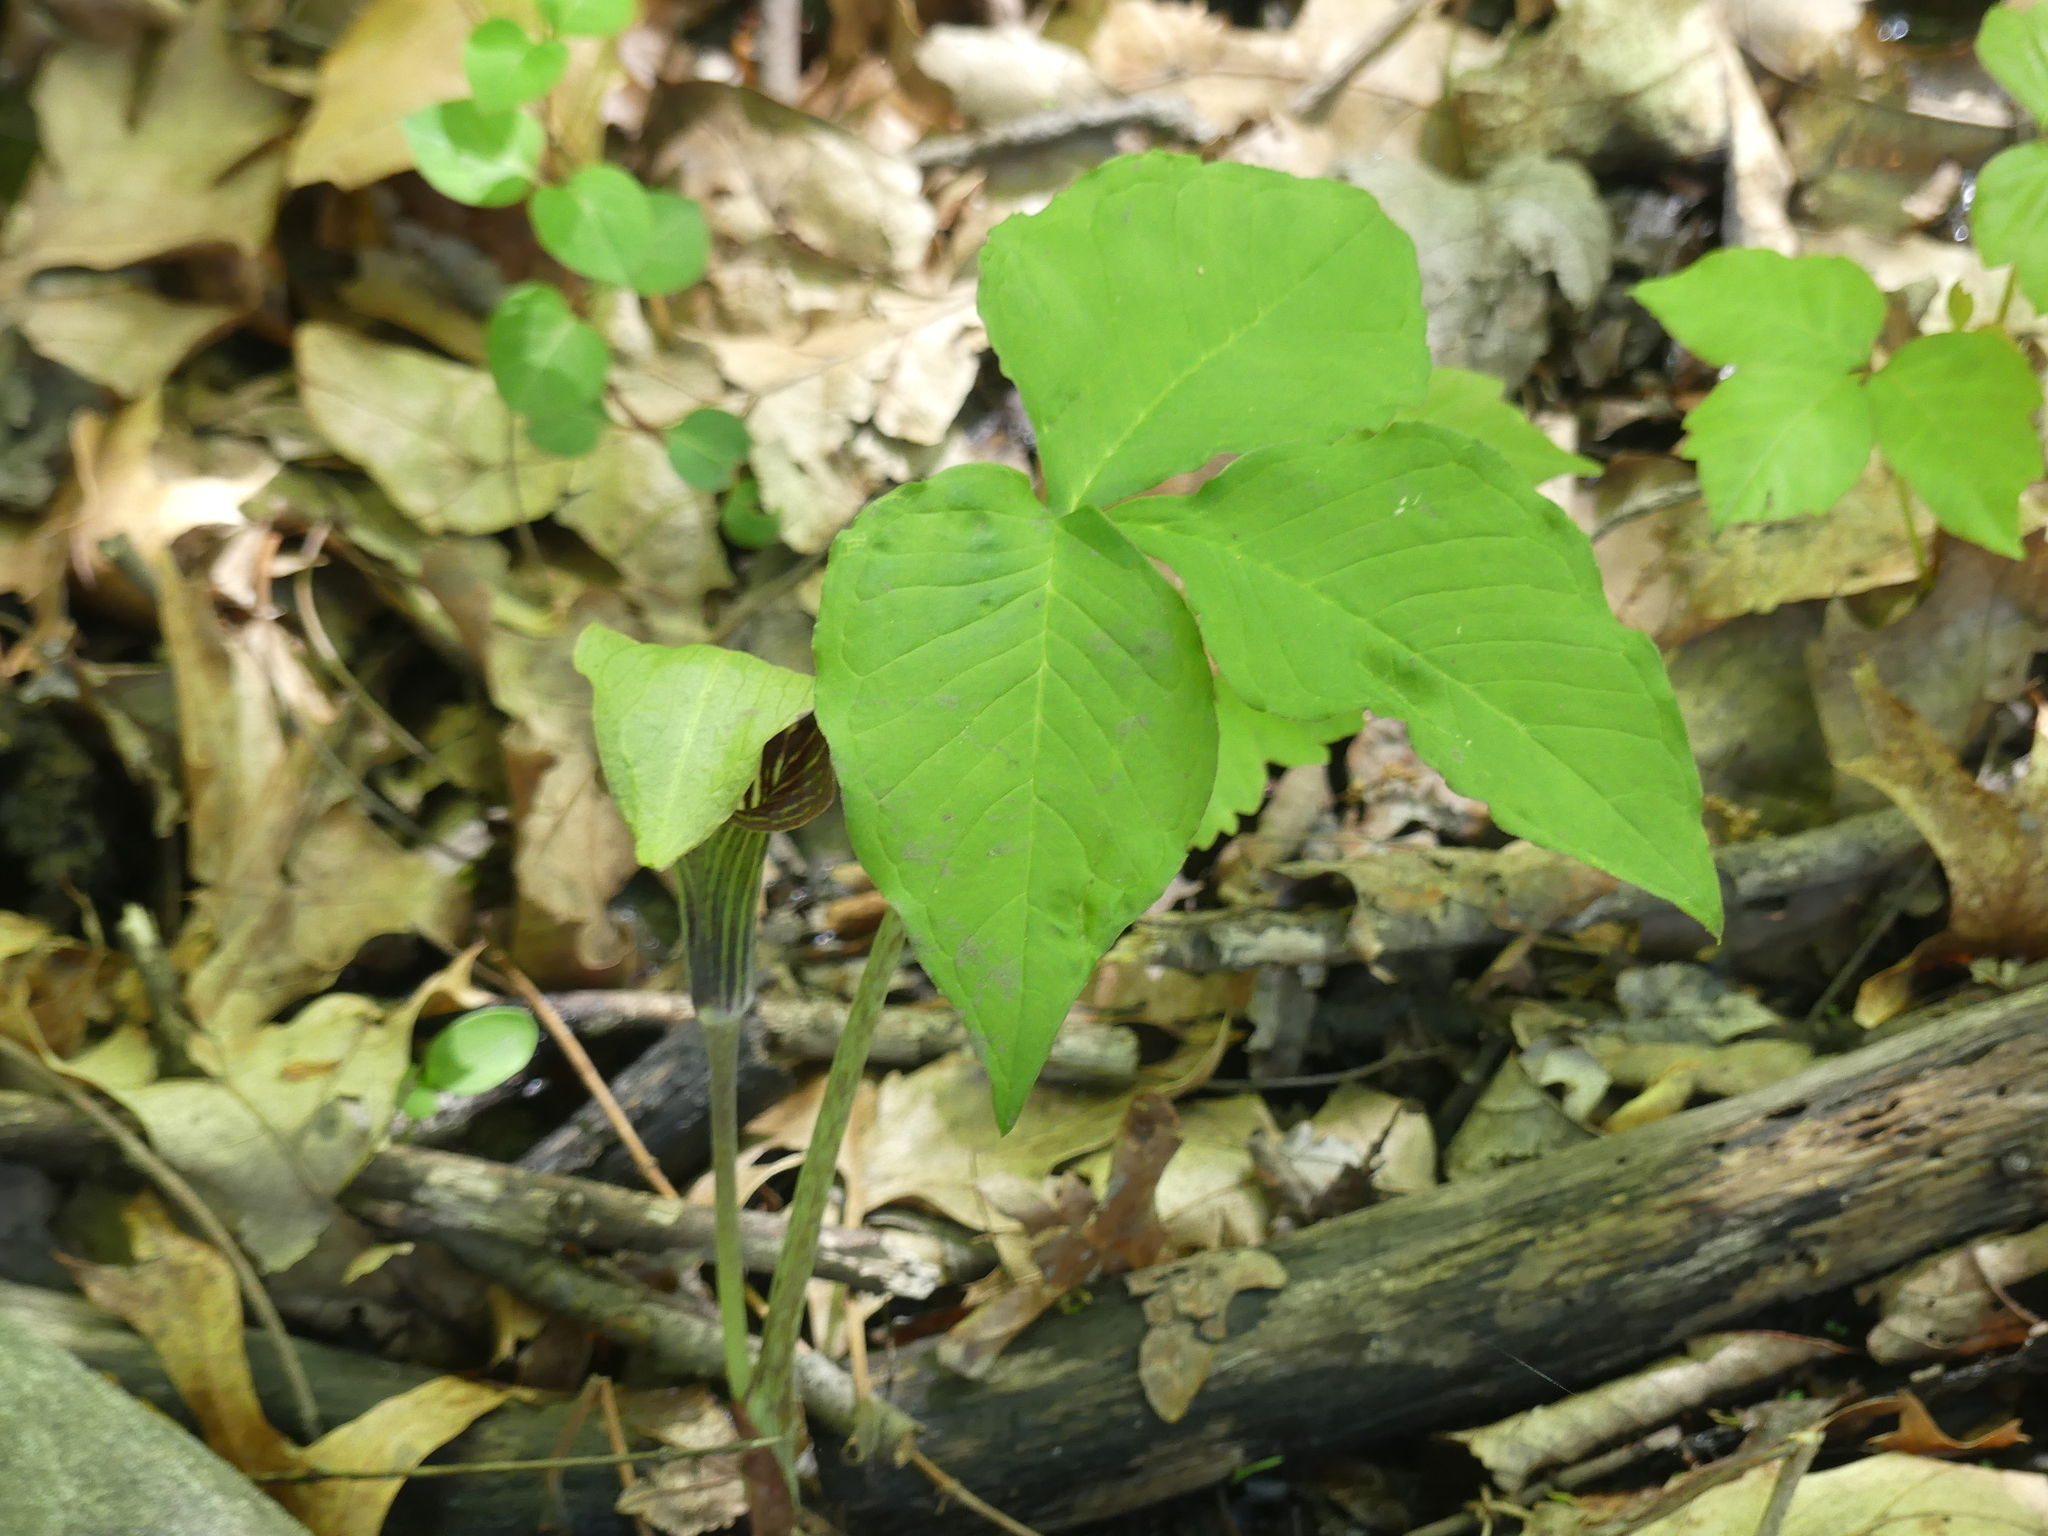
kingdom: Plantae
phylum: Tracheophyta
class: Liliopsida
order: Alismatales
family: Araceae
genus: Arisaema
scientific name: Arisaema triphyllum
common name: Jack-in-the-pulpit
